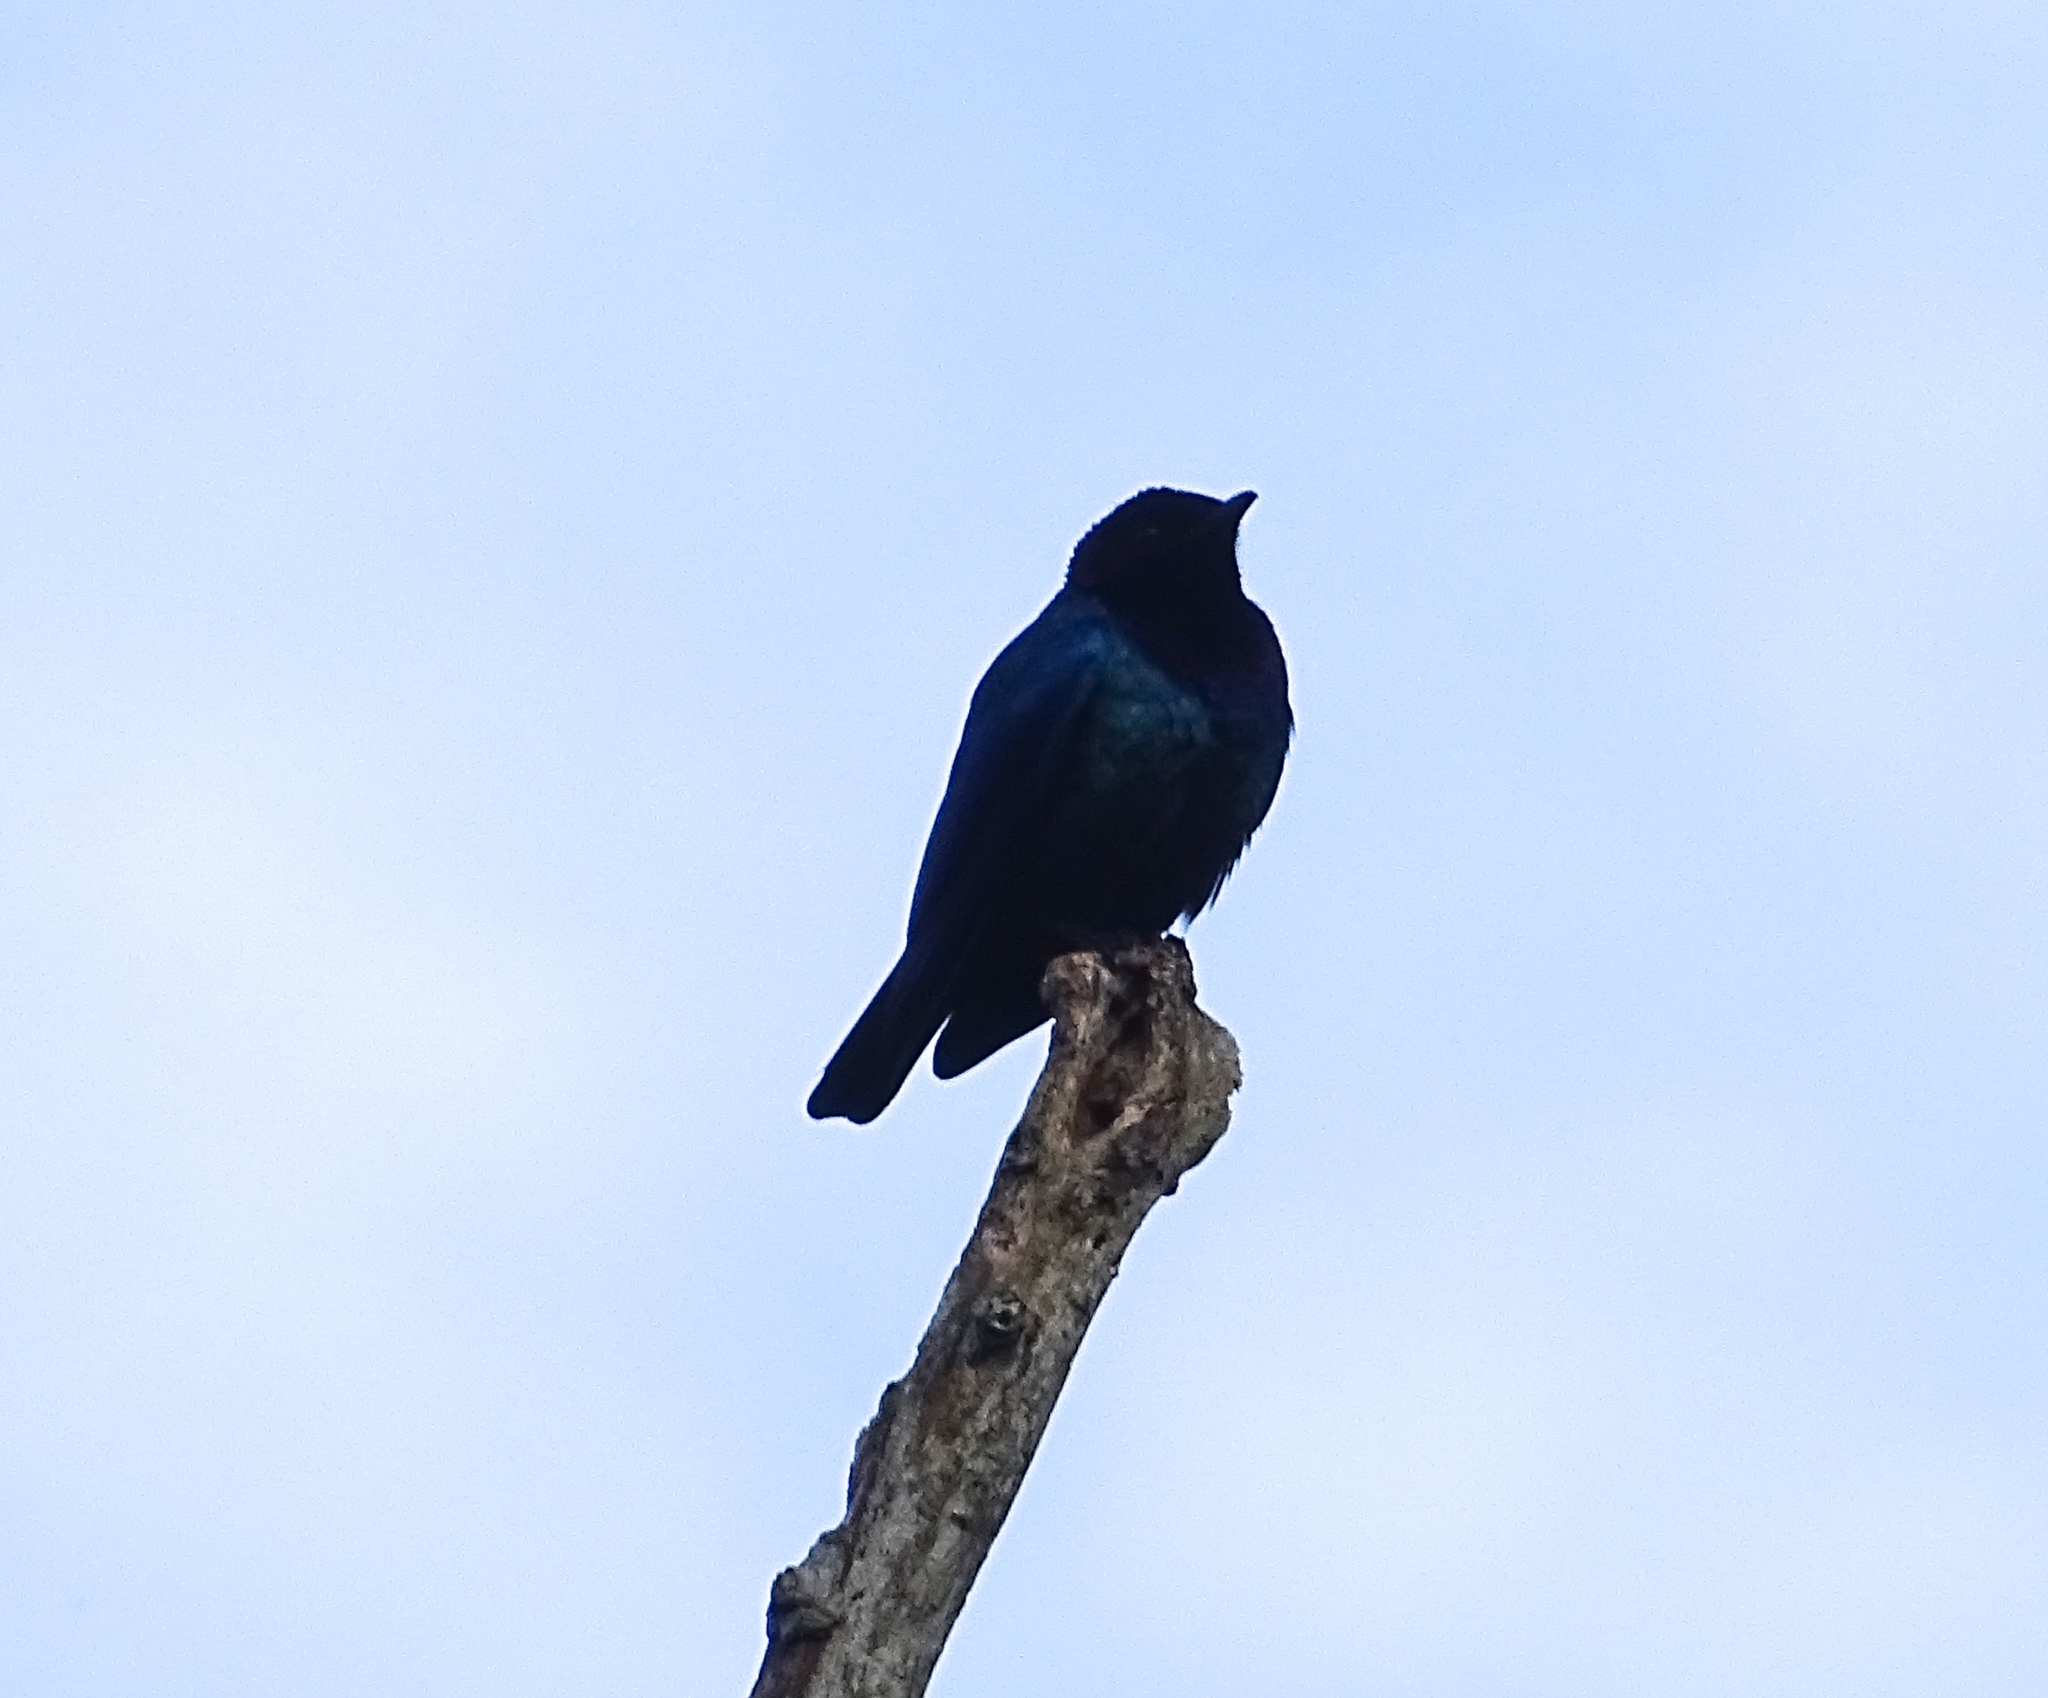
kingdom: Animalia
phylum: Chordata
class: Aves
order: Passeriformes
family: Sturnidae
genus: Hylopsar
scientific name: Hylopsar purpureiceps
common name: Purple-headed starling
